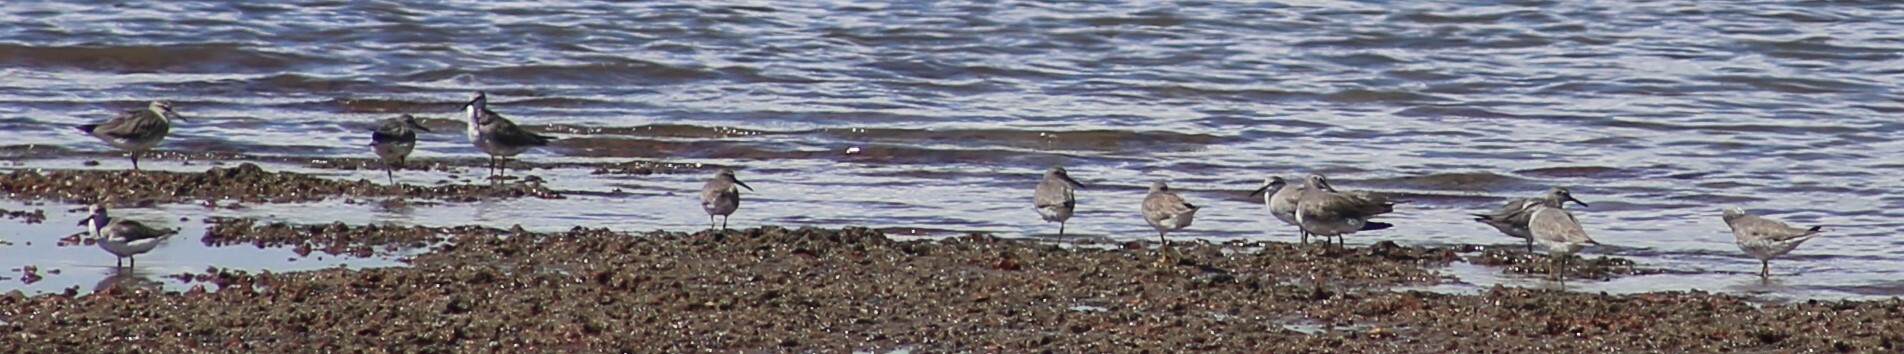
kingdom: Animalia
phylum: Chordata
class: Aves
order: Charadriiformes
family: Scolopacidae
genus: Tringa
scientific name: Tringa brevipes
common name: Grey-tailed tattler
